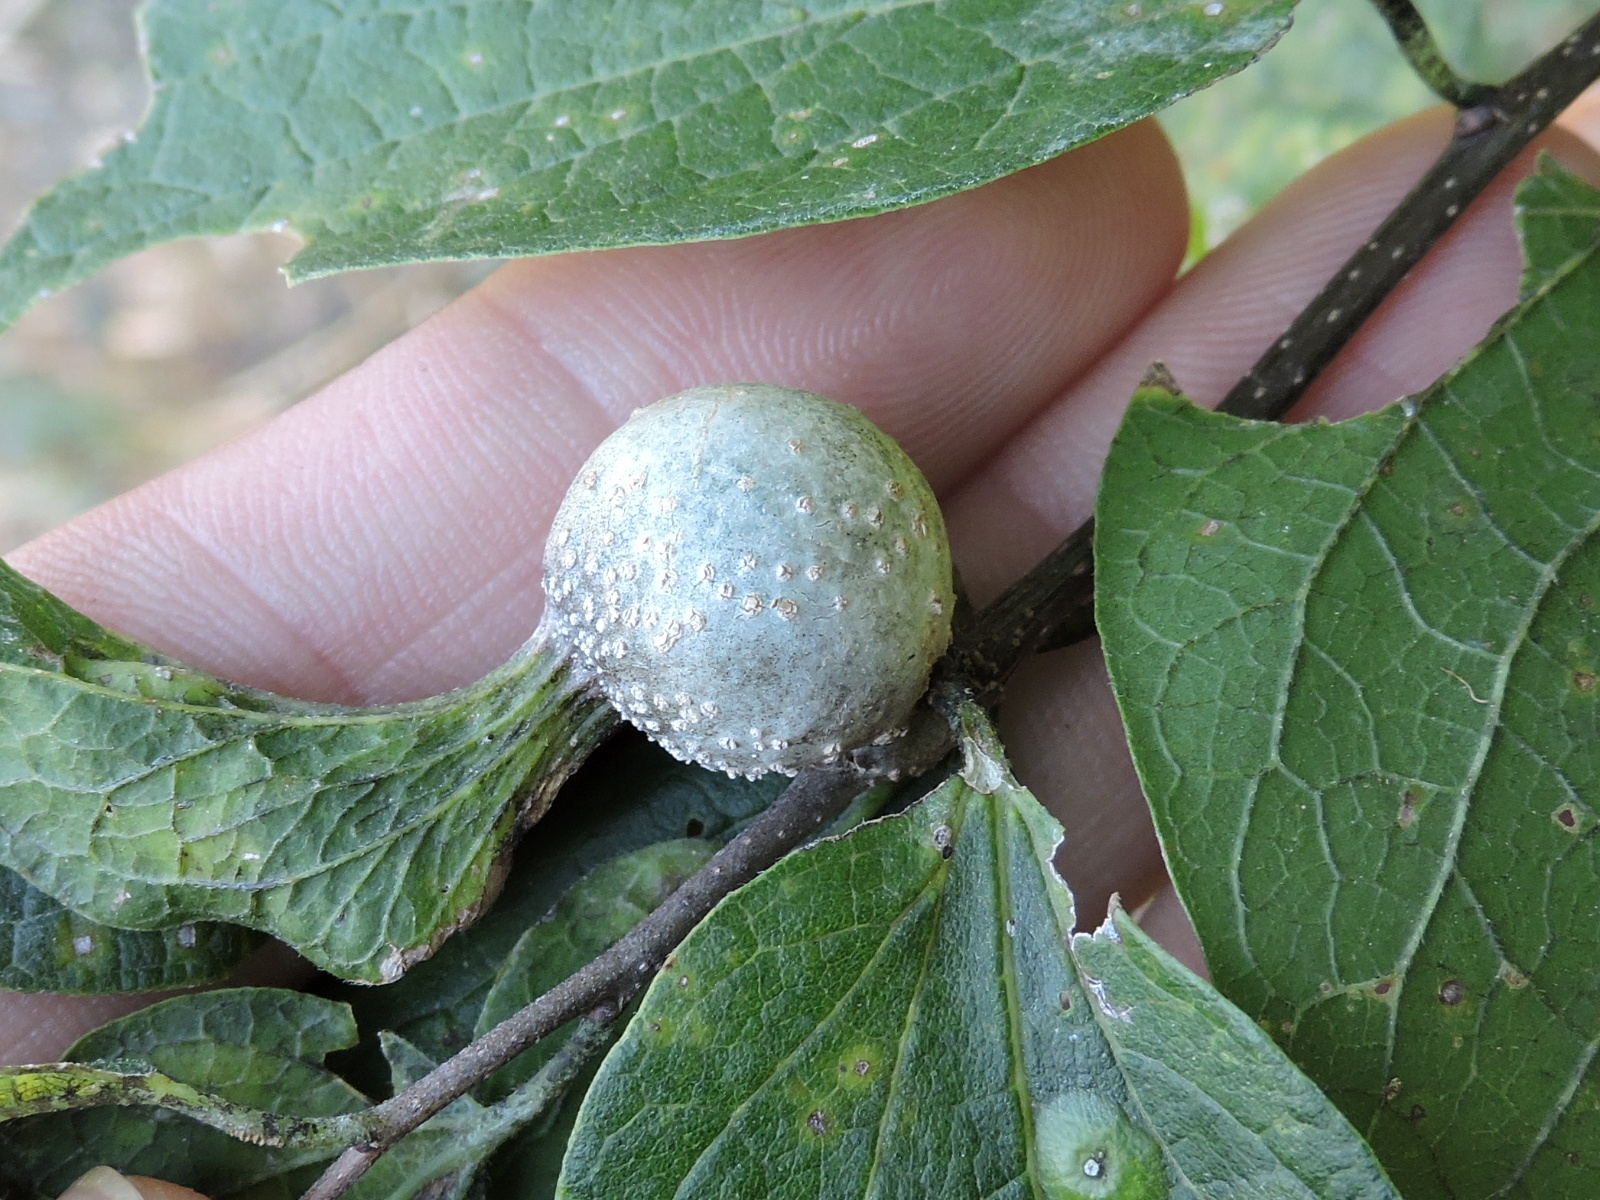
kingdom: Animalia
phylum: Arthropoda
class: Insecta
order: Hemiptera
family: Aphalaridae
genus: Pachypsylla
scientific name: Pachypsylla venusta
